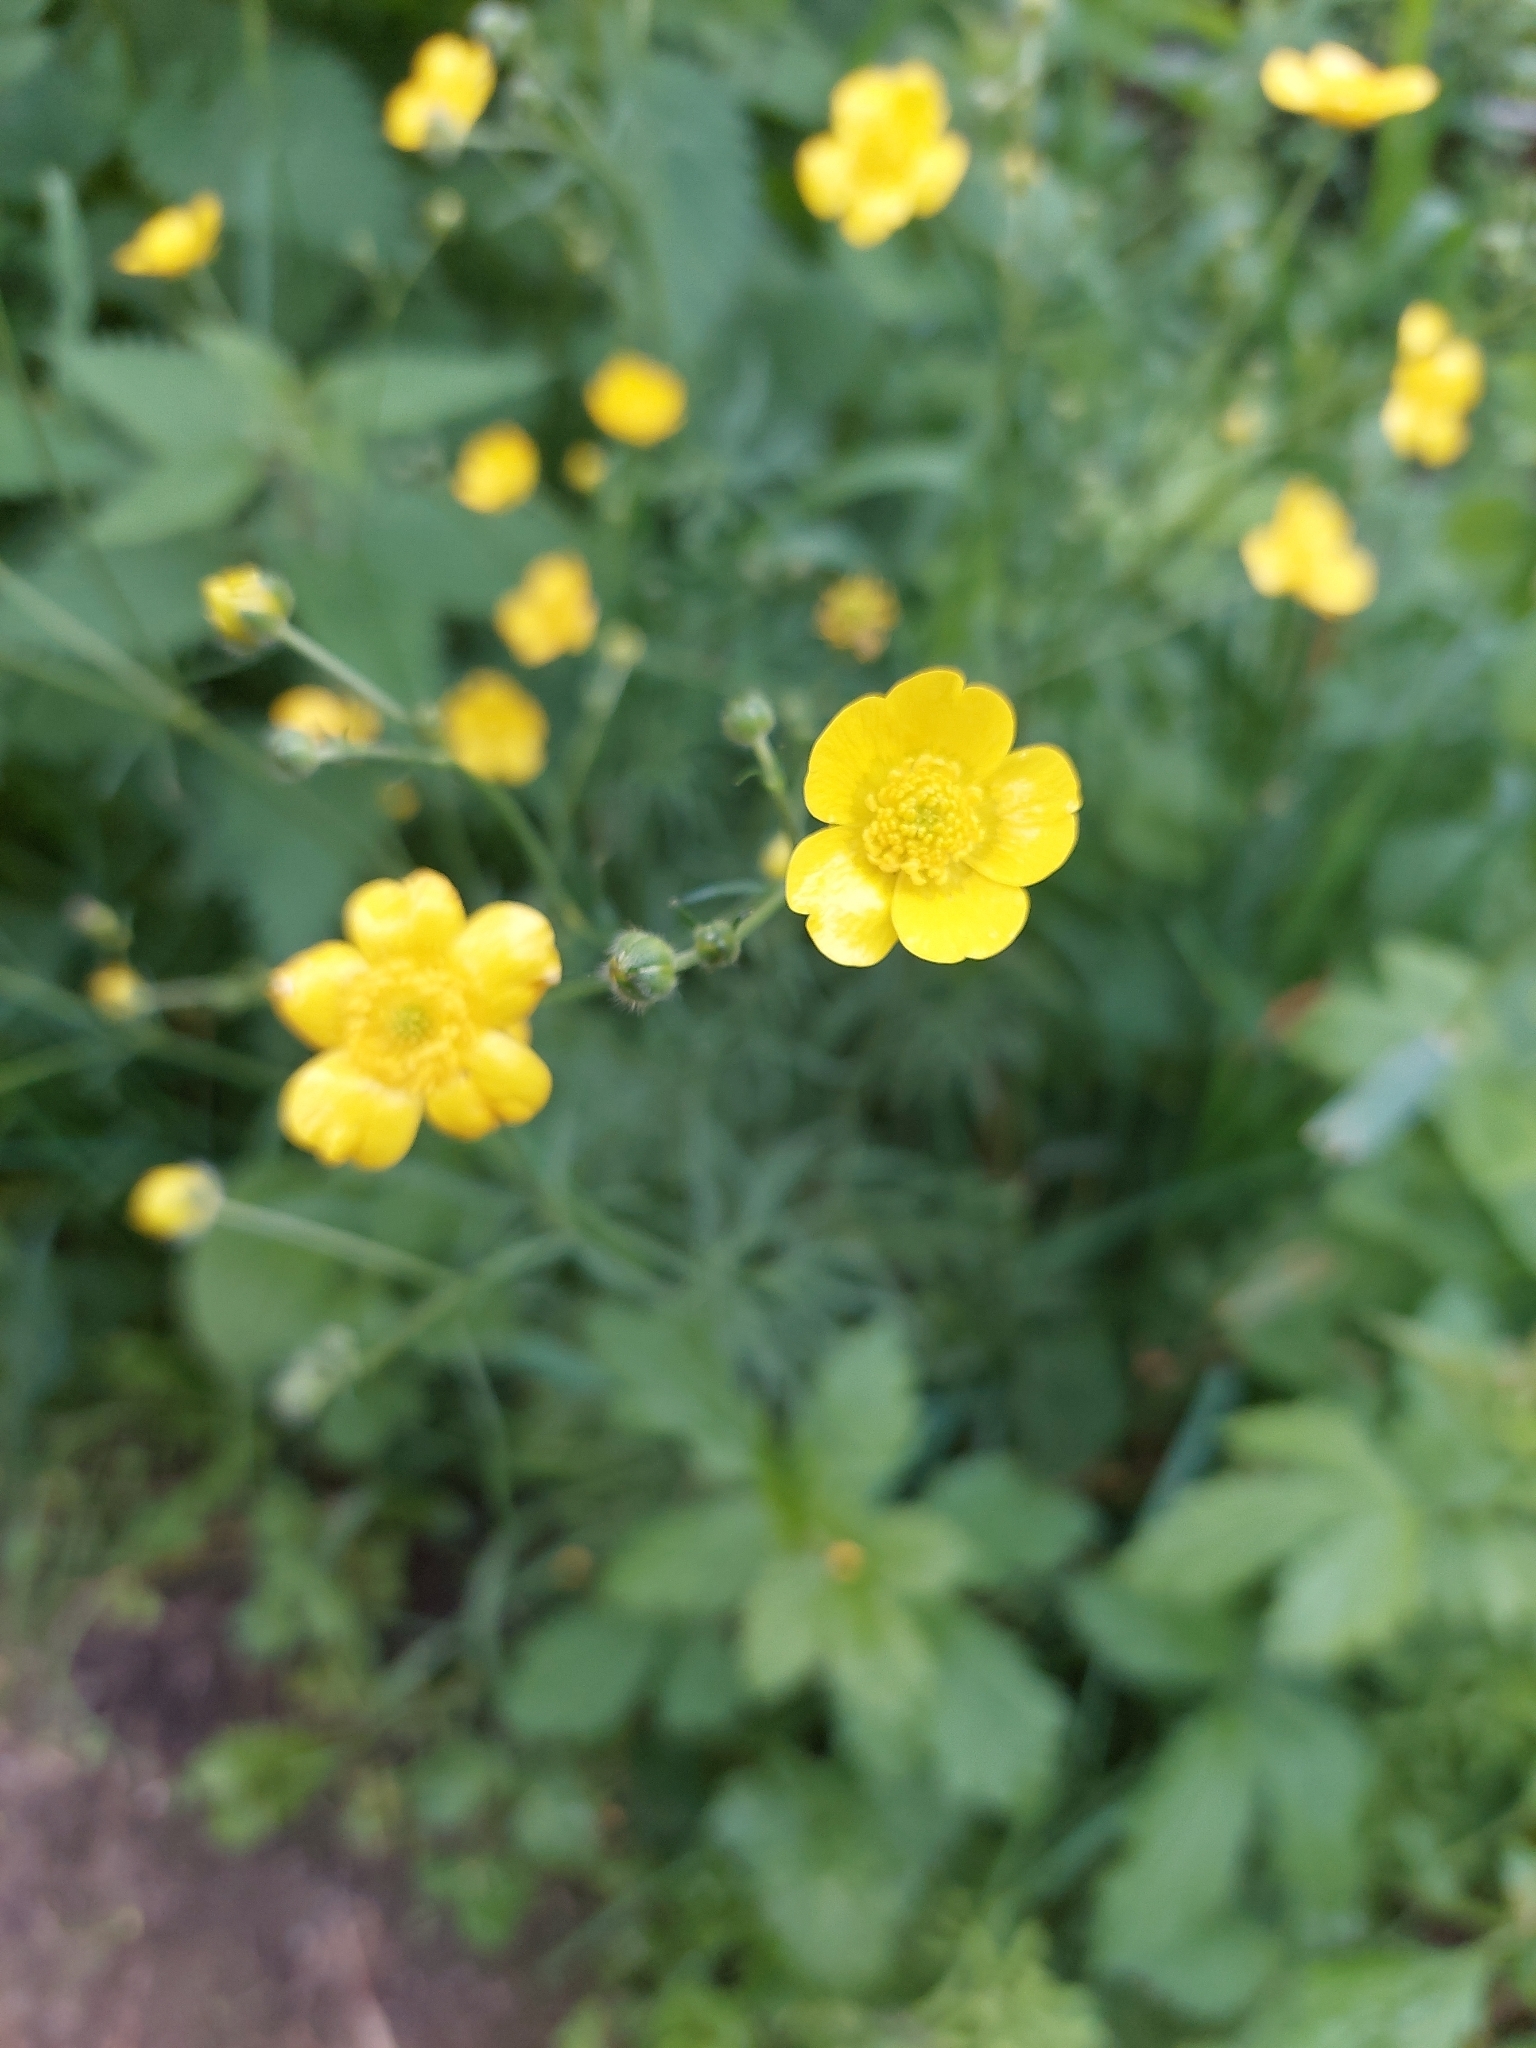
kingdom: Plantae
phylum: Tracheophyta
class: Magnoliopsida
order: Ranunculales
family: Ranunculaceae
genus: Ranunculus
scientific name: Ranunculus acris
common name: Meadow buttercup
